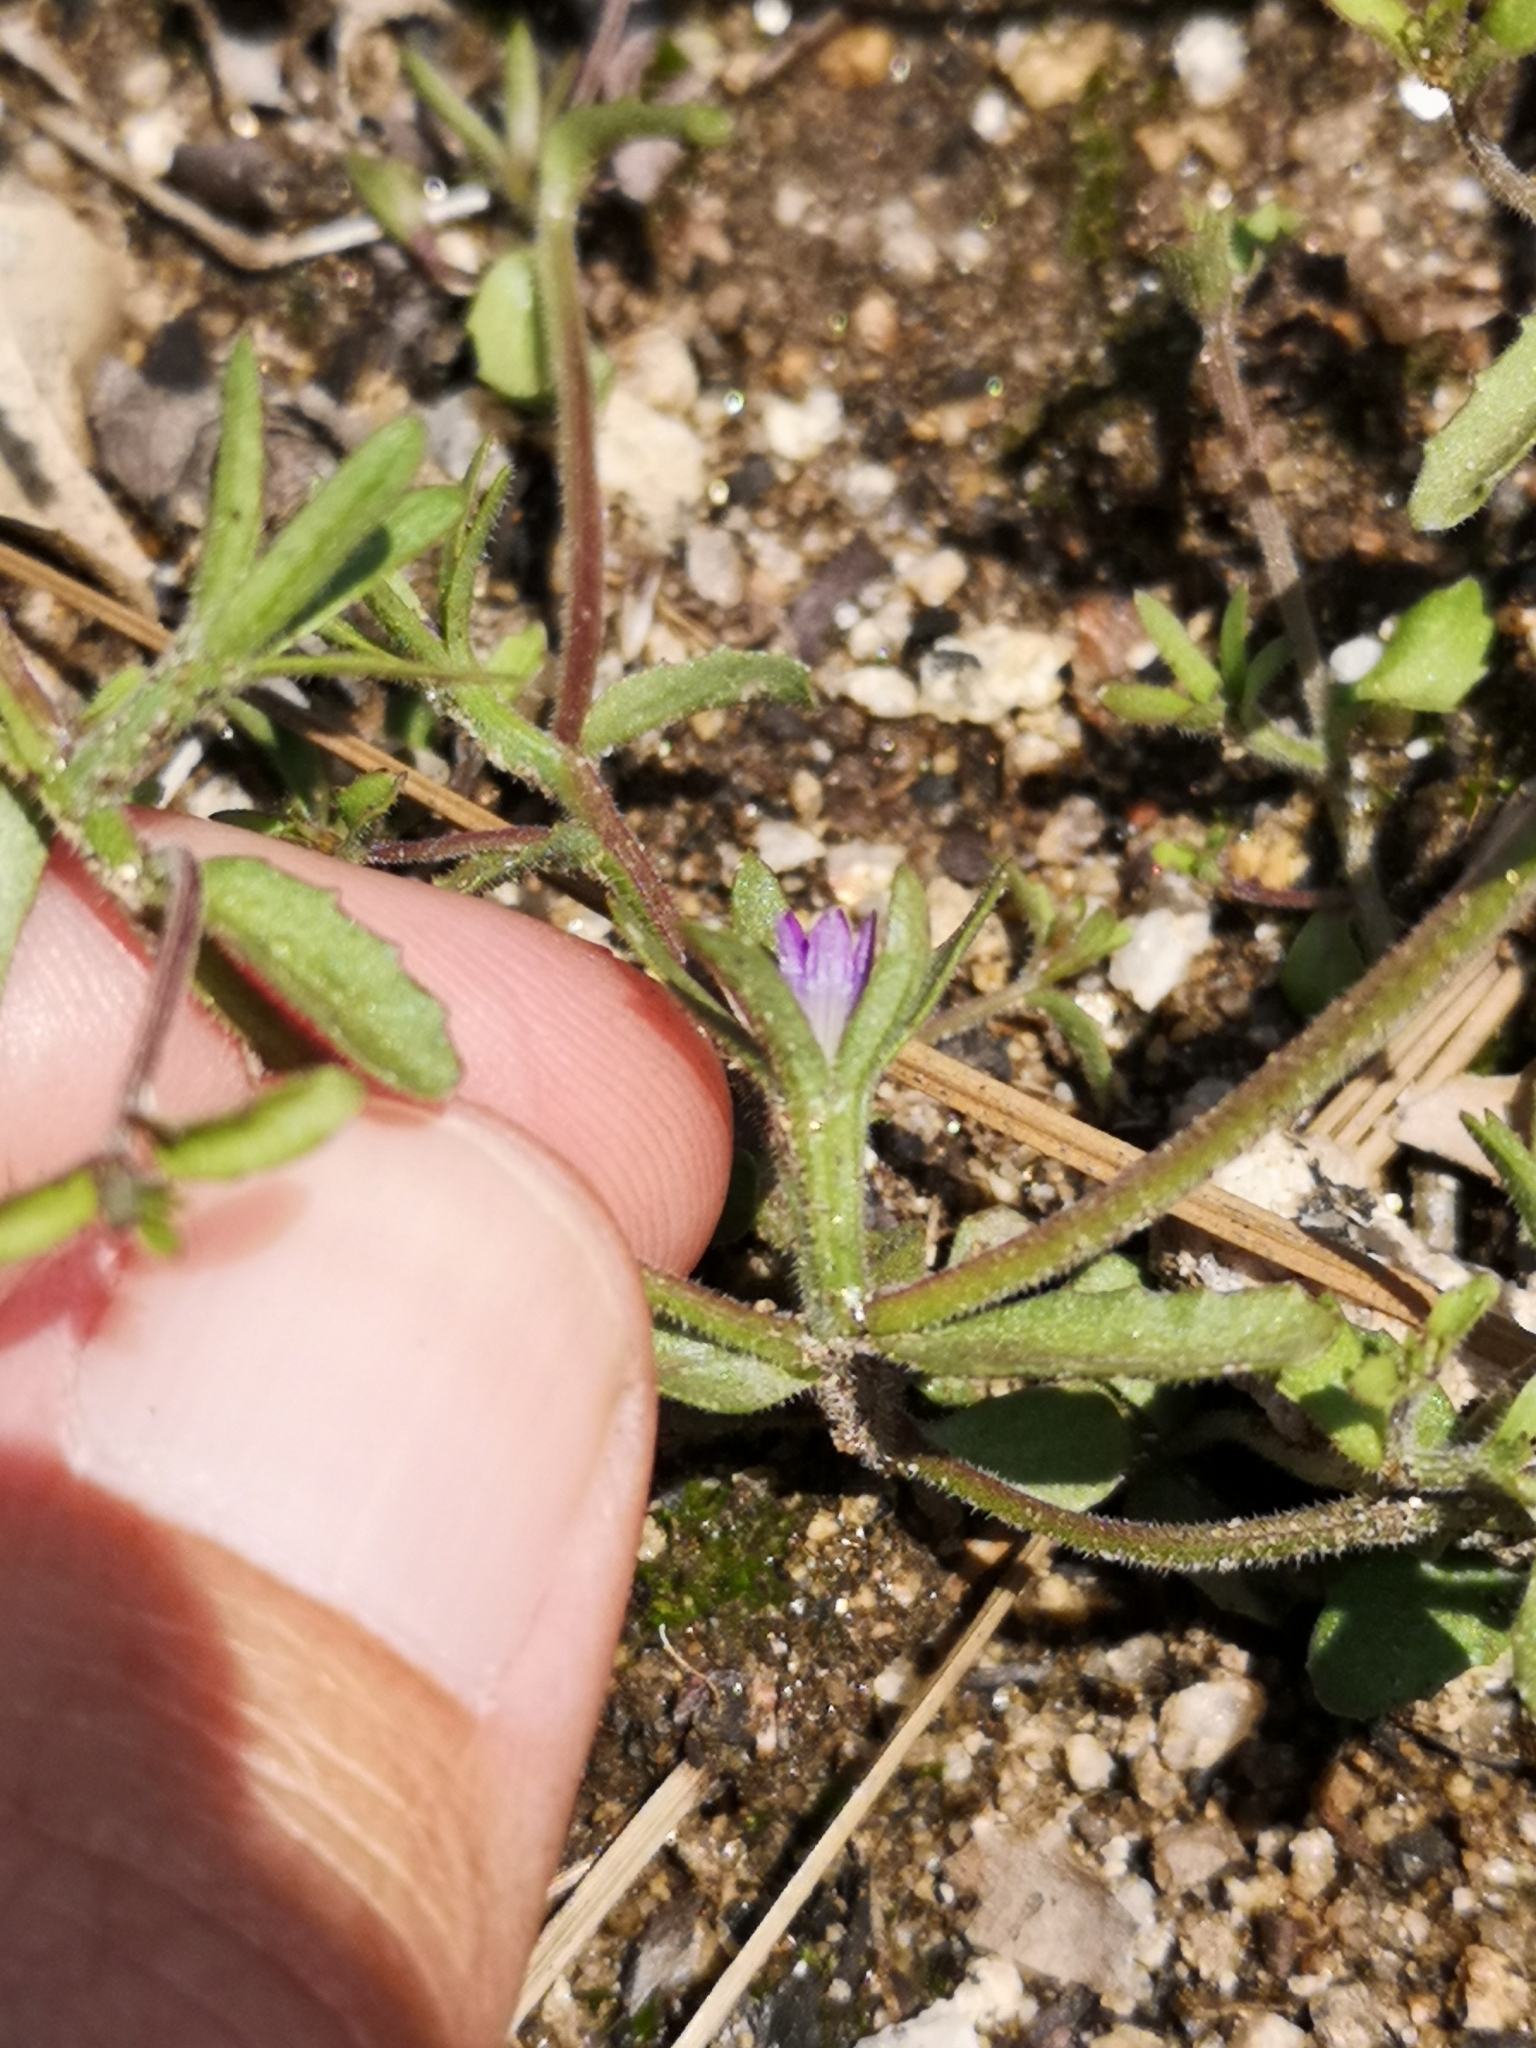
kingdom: Plantae
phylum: Tracheophyta
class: Magnoliopsida
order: Asterales
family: Campanulaceae
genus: Githopsis
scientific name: Githopsis diffusa
